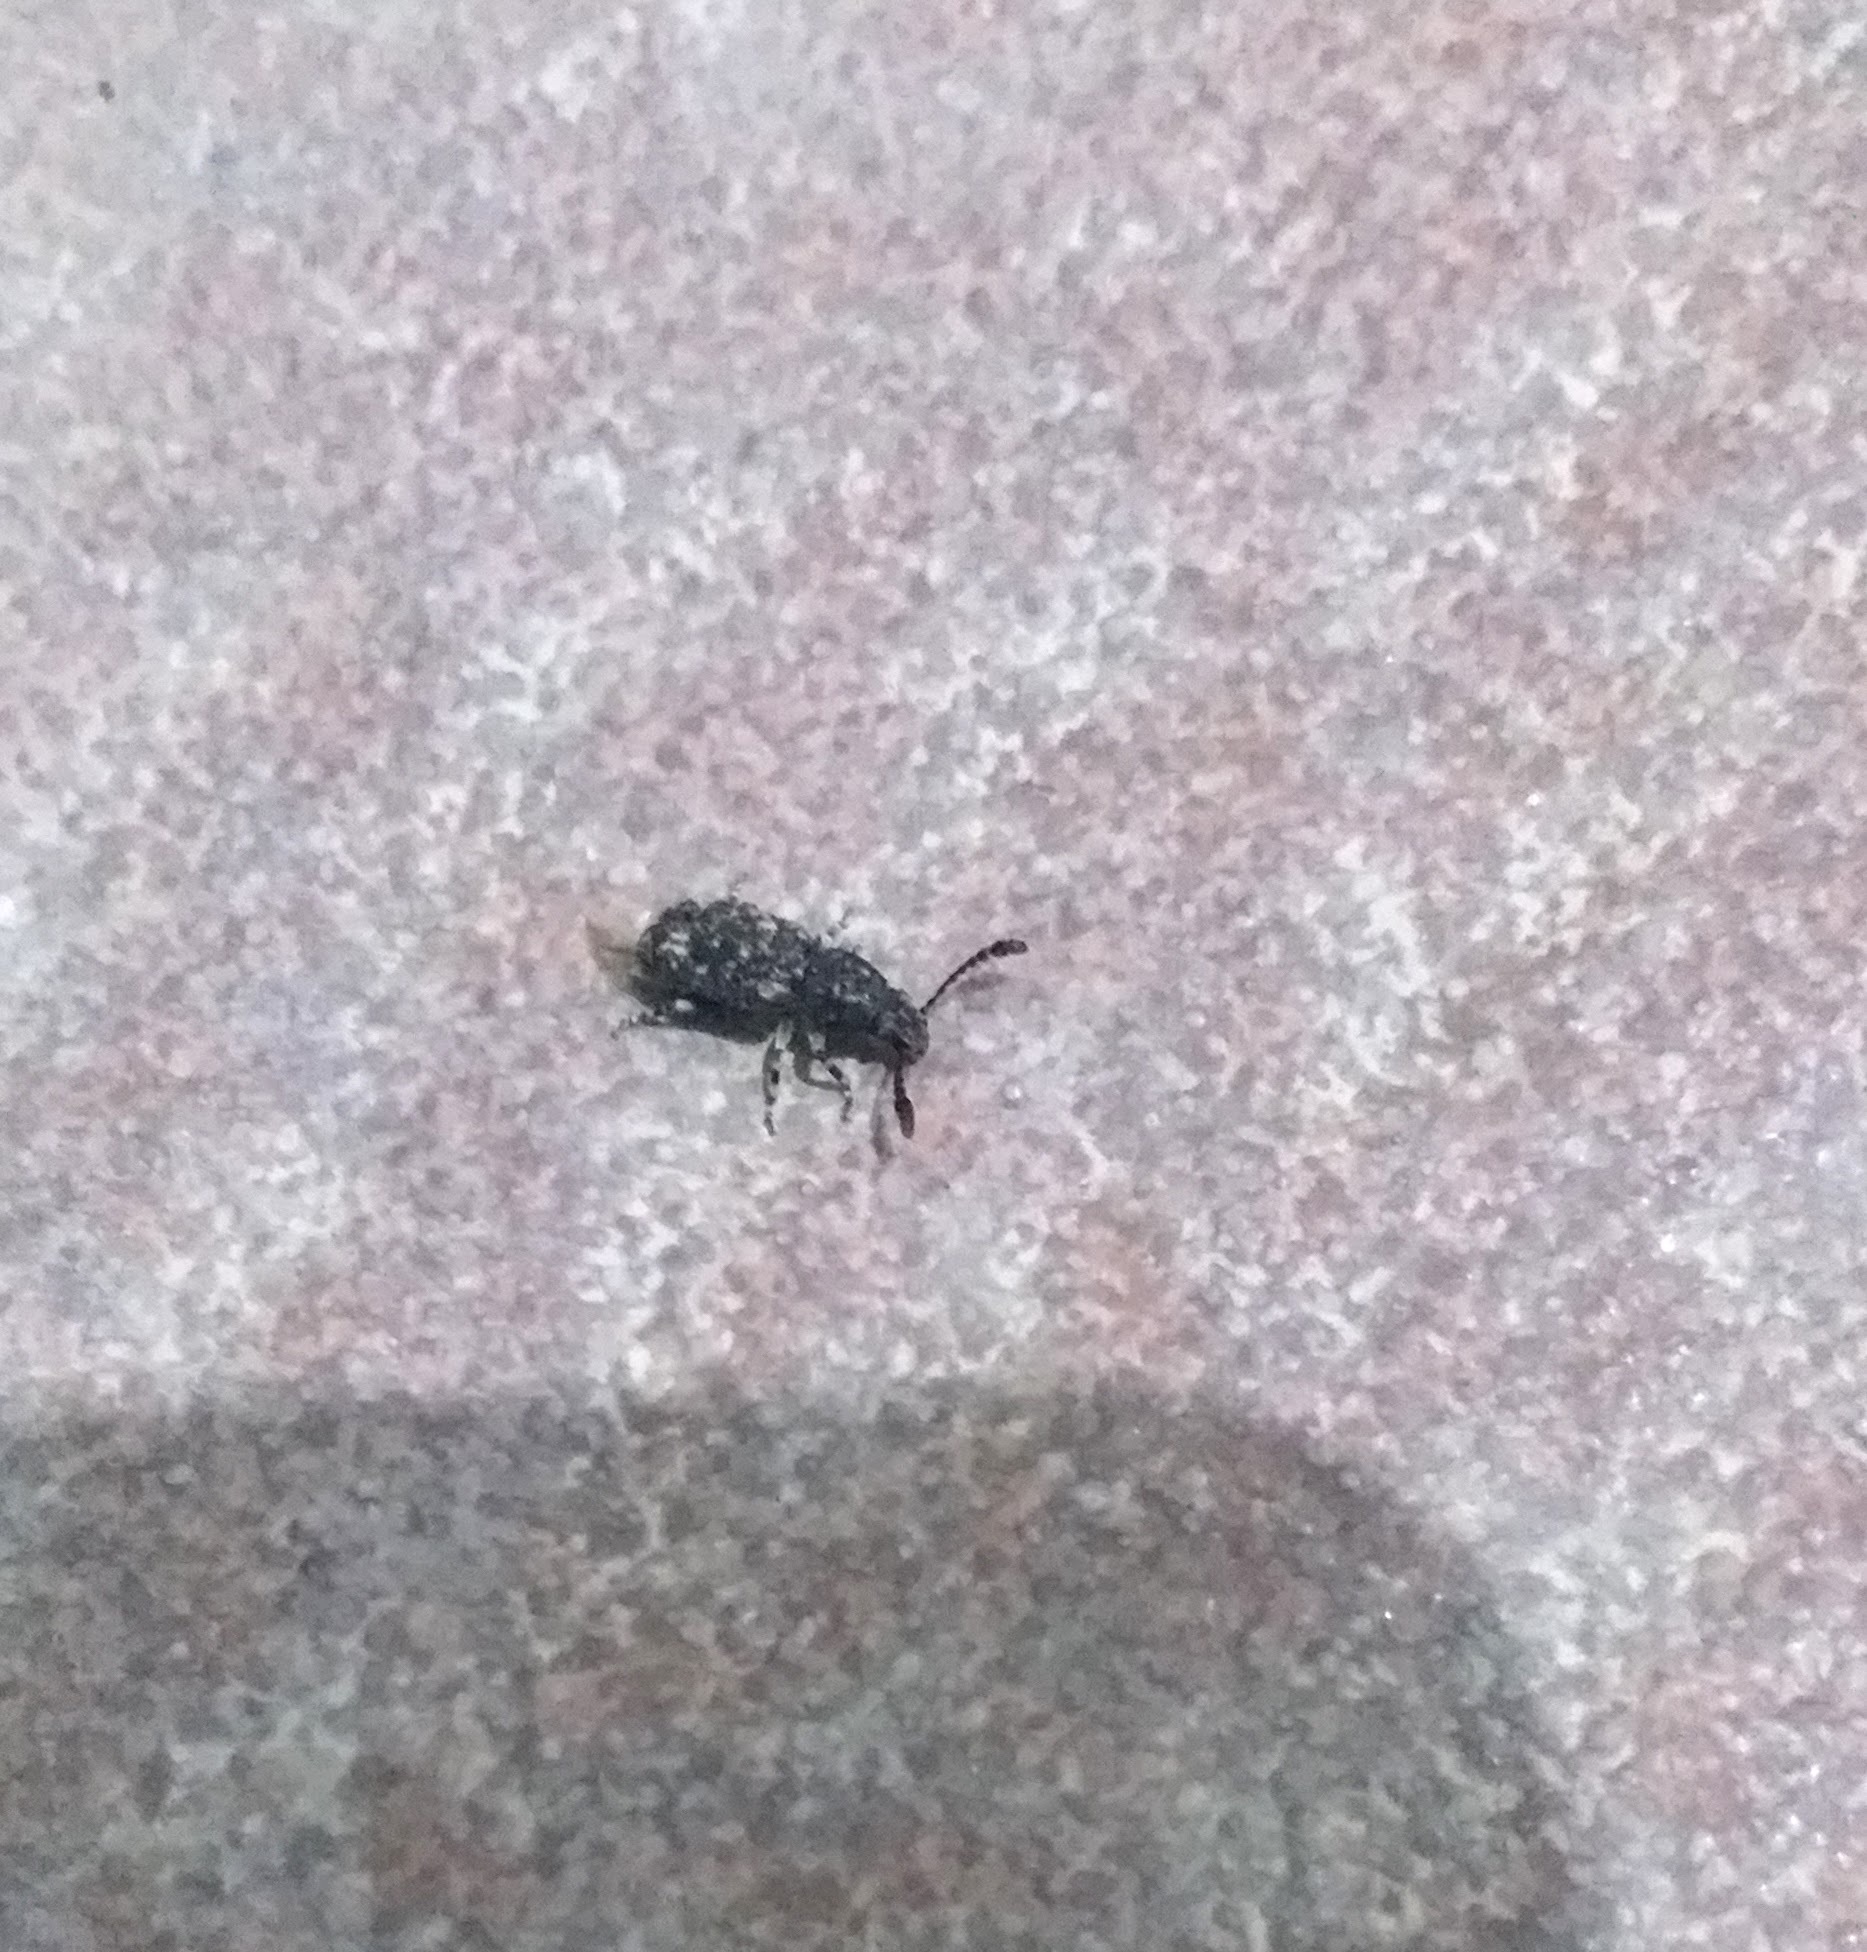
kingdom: Animalia
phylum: Arthropoda
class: Insecta
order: Coleoptera
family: Anthribidae
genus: Eucorynus
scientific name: Eucorynus crassicornis
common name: Fungus weevil
